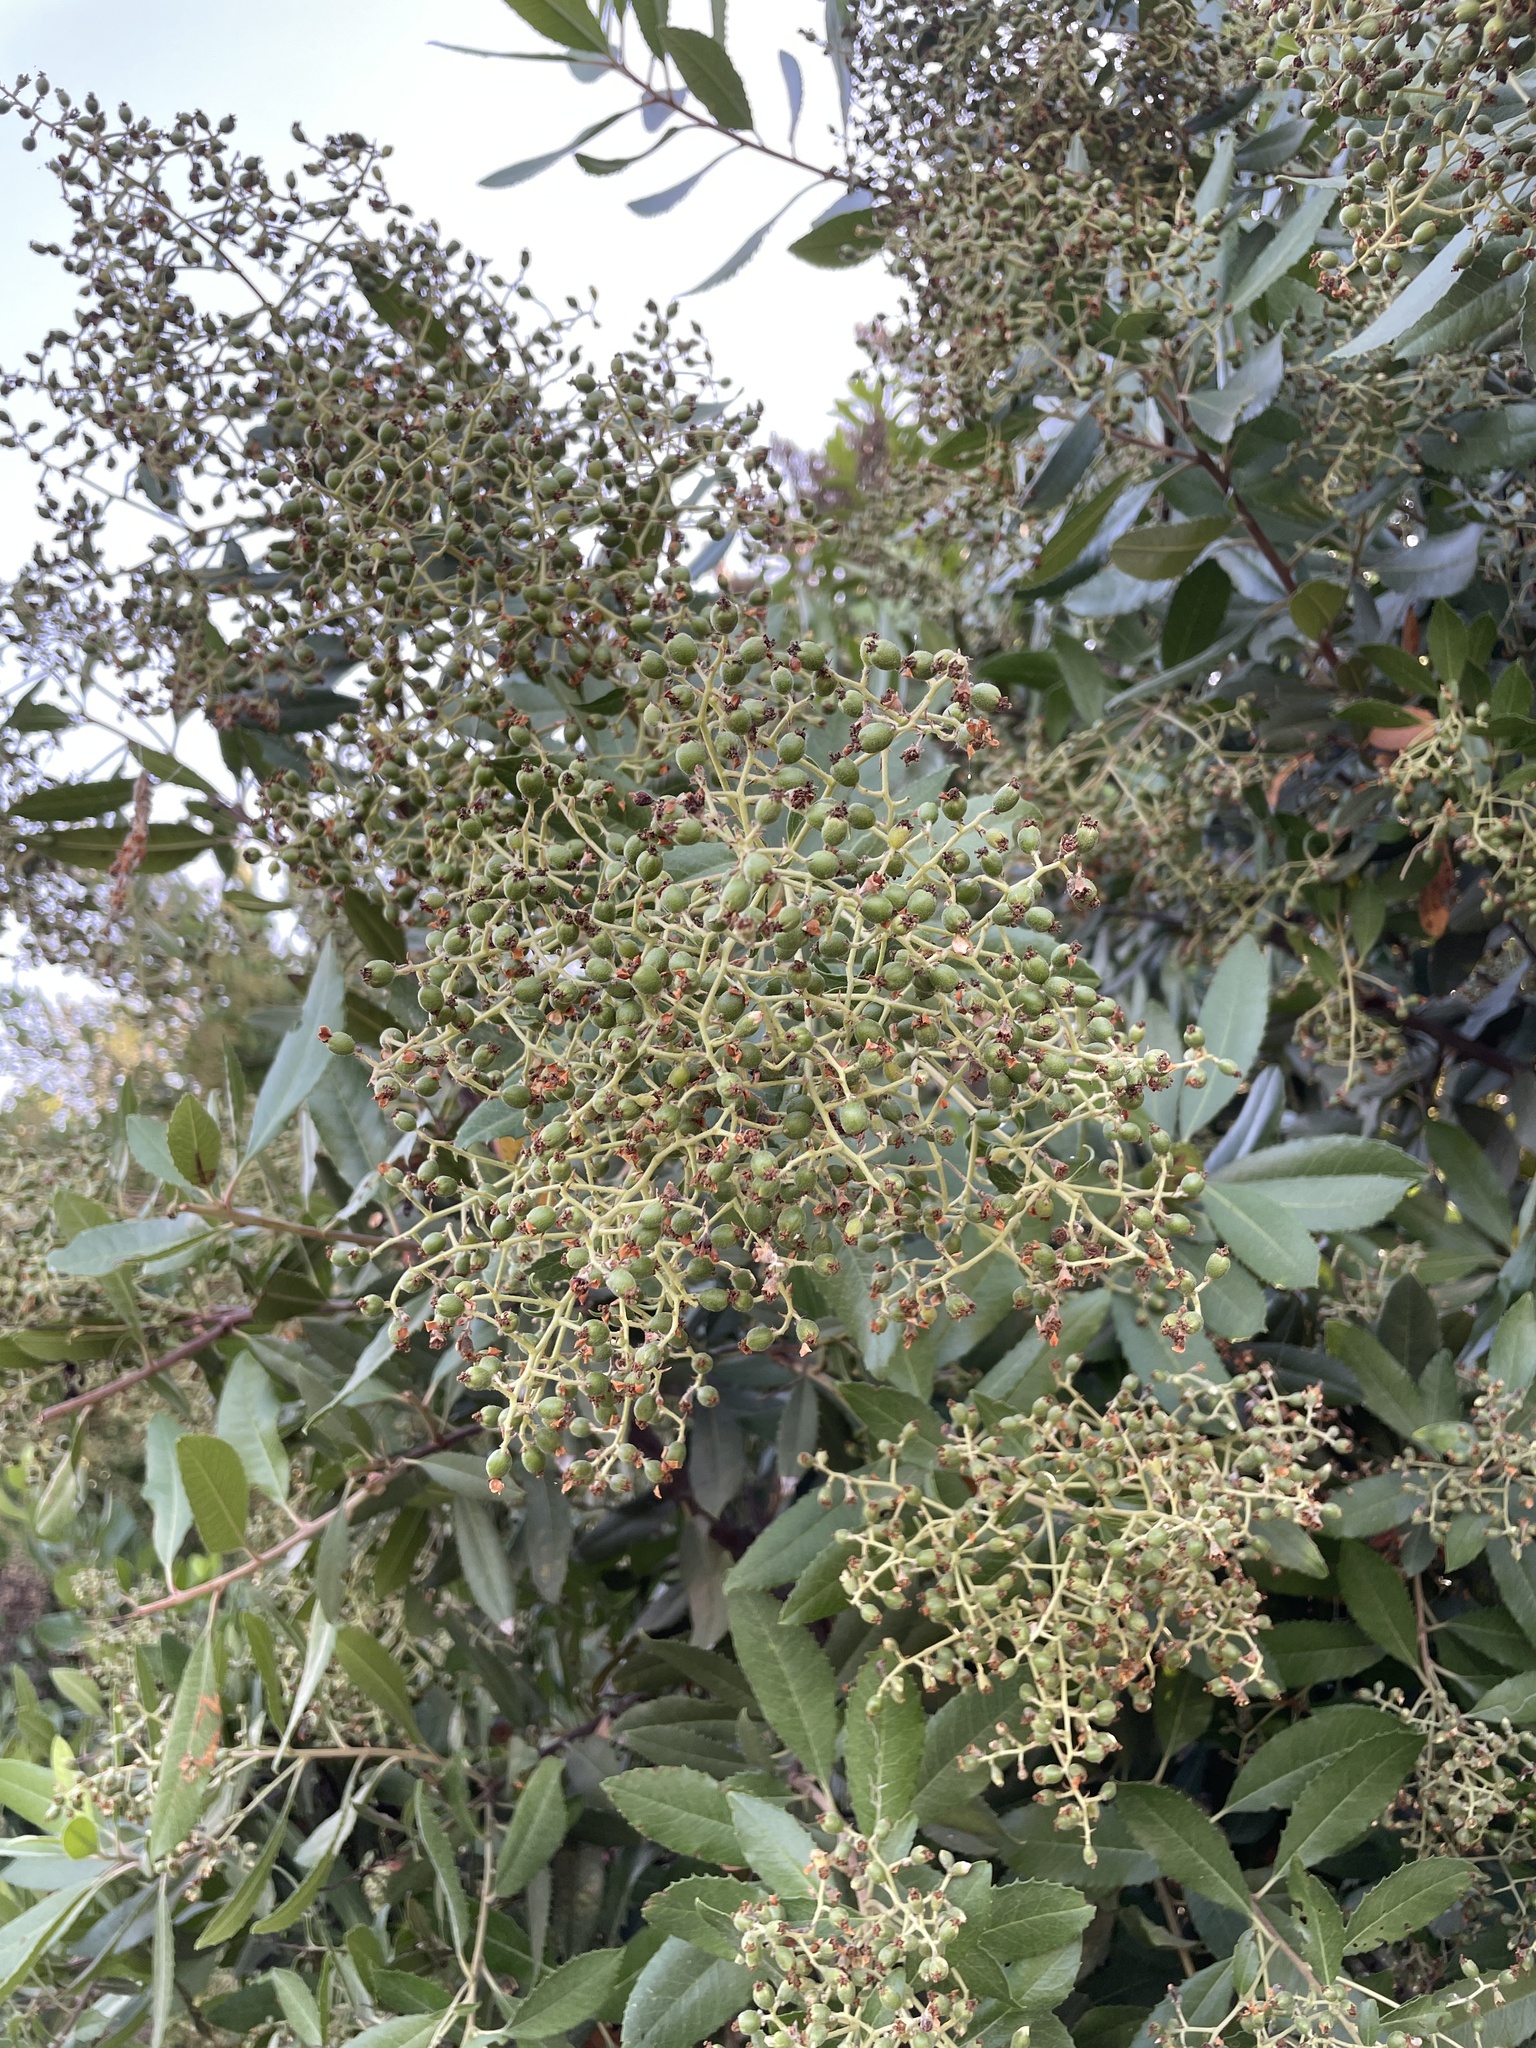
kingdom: Plantae
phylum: Tracheophyta
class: Magnoliopsida
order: Rosales
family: Rosaceae
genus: Heteromeles
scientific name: Heteromeles arbutifolia
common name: California-holly
